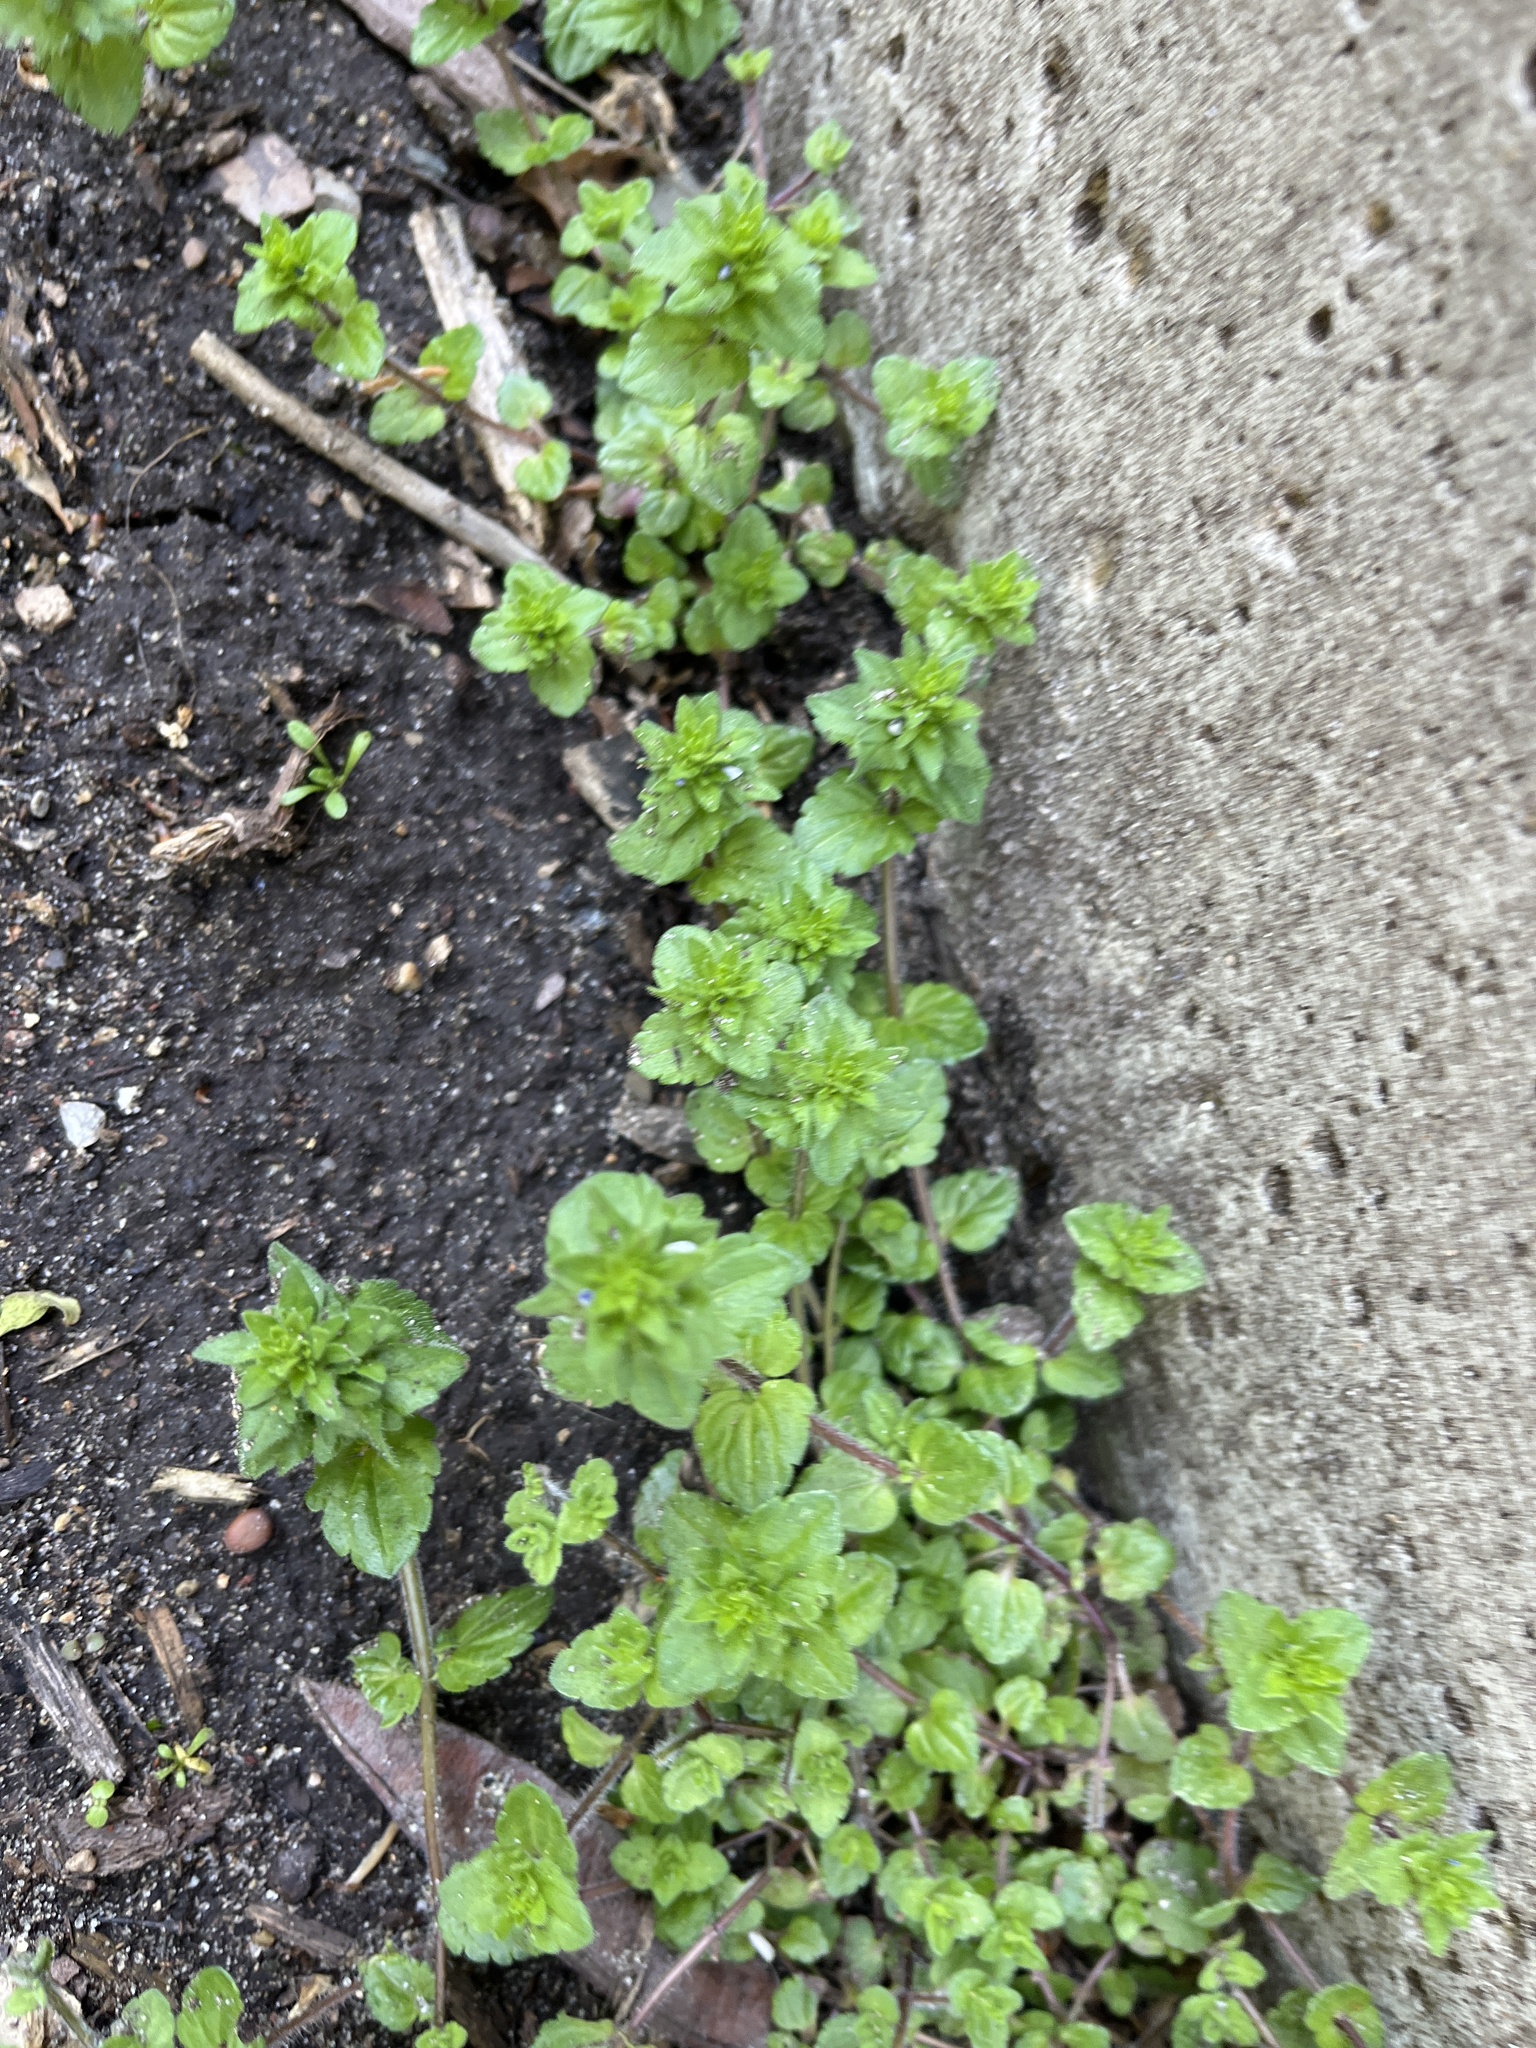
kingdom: Plantae
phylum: Tracheophyta
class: Magnoliopsida
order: Lamiales
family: Plantaginaceae
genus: Veronica
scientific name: Veronica arvensis
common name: Corn speedwell
